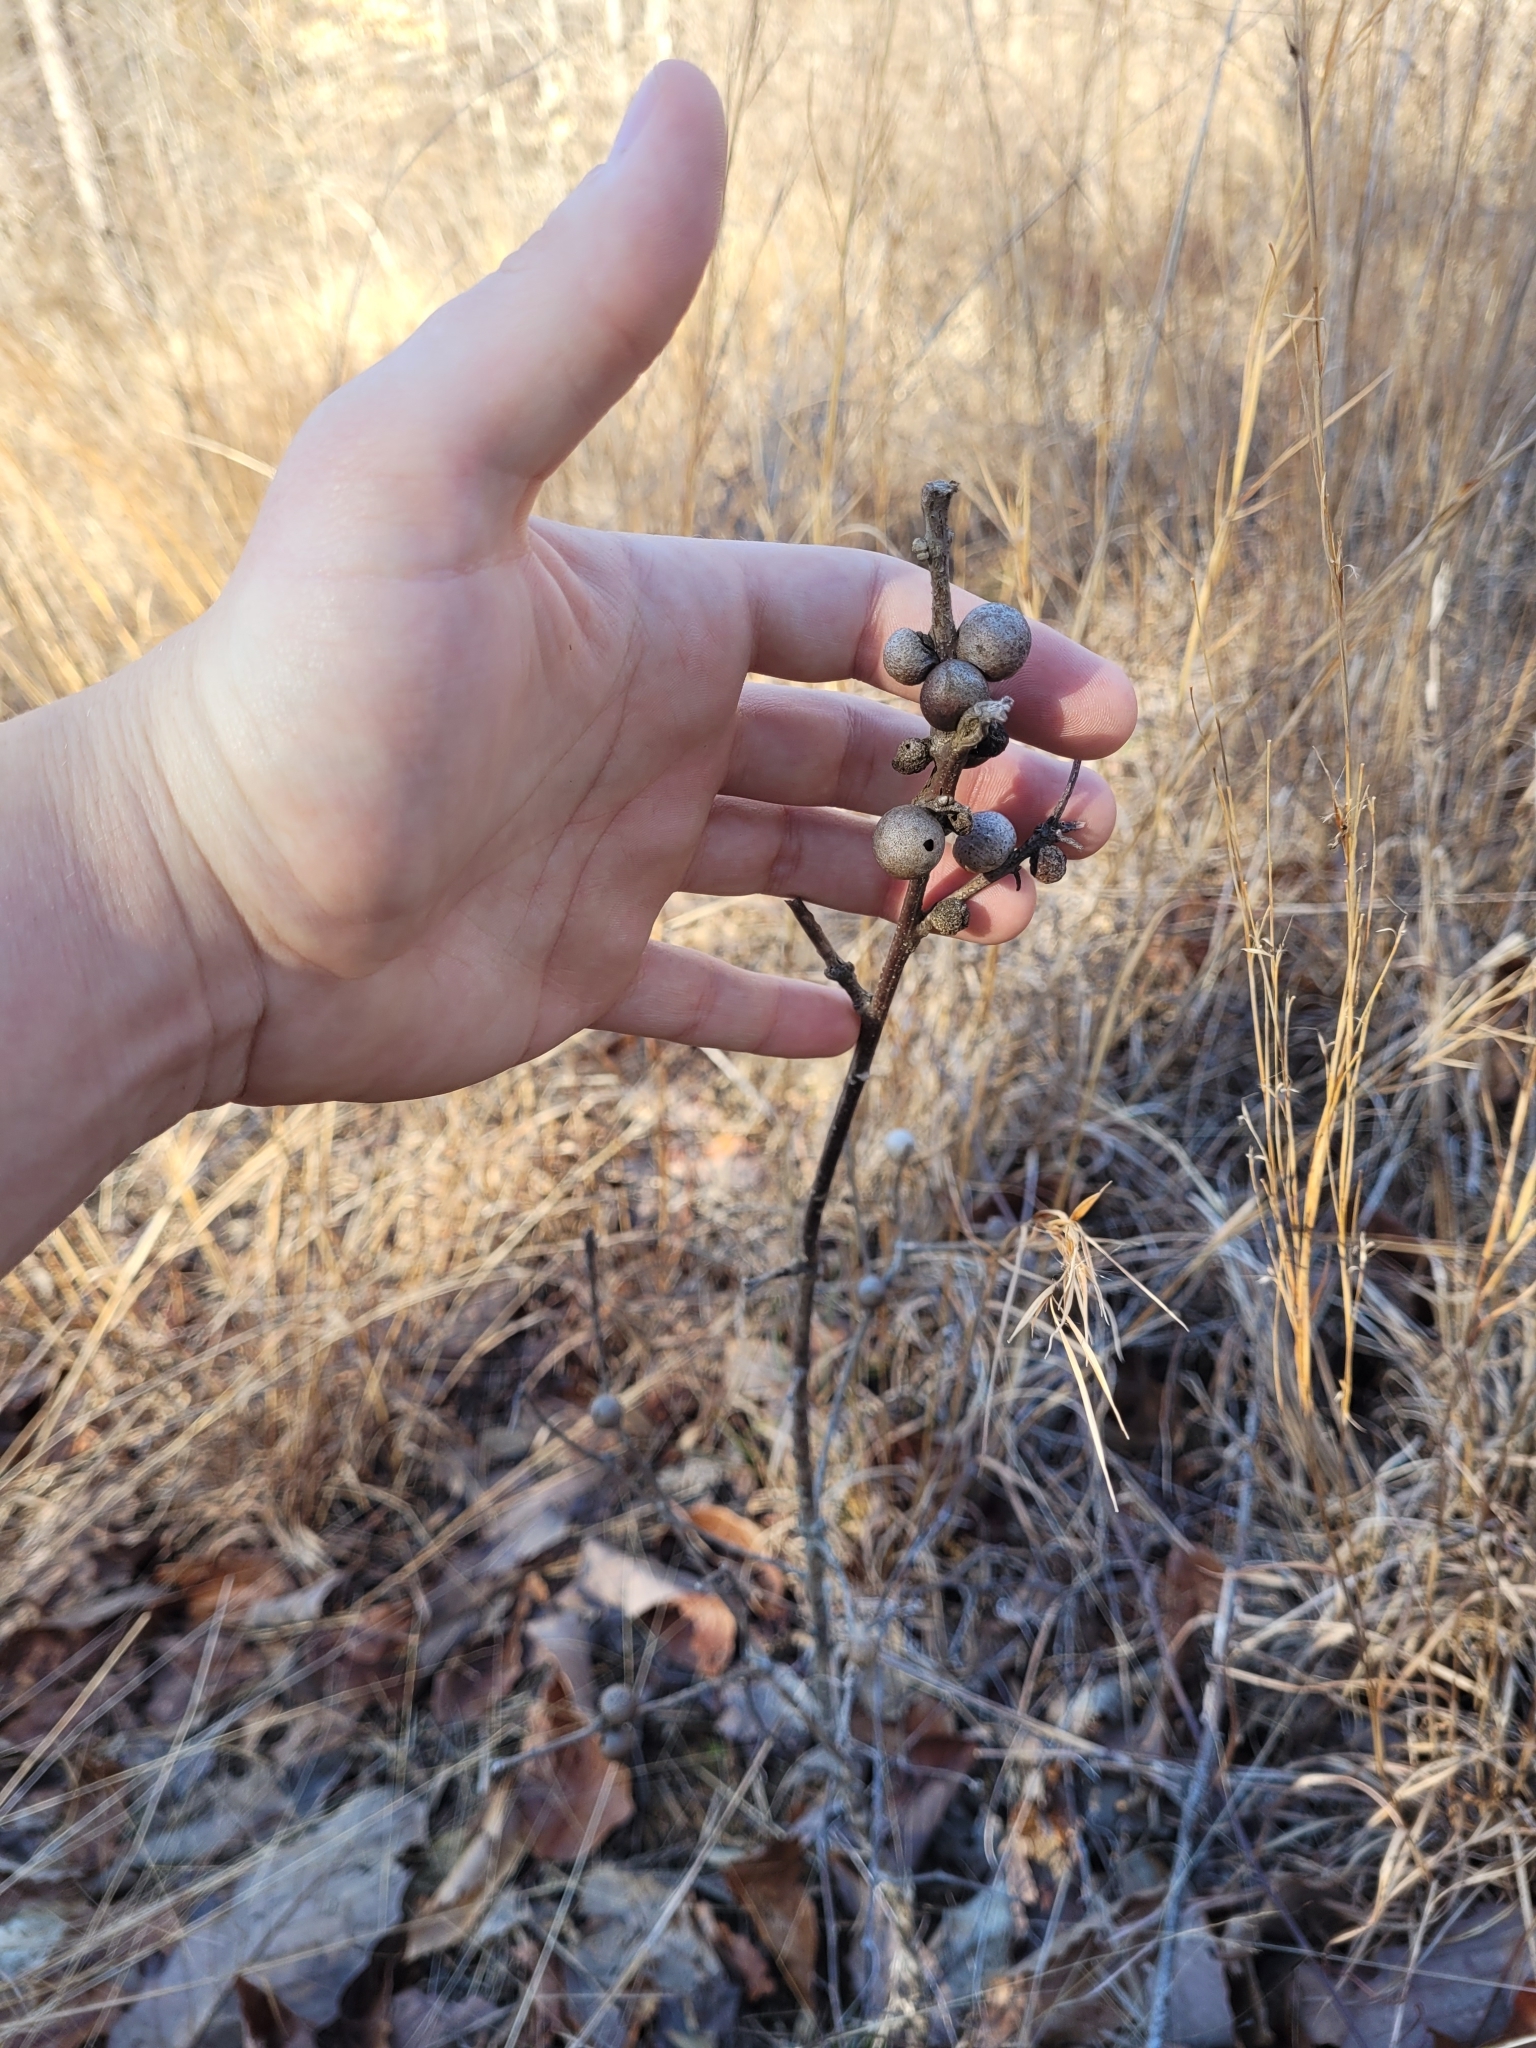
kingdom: Animalia
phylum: Arthropoda
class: Insecta
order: Hymenoptera
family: Cynipidae
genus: Disholcaspis
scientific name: Disholcaspis quercusglobulus
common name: Round bullet gall wasp
